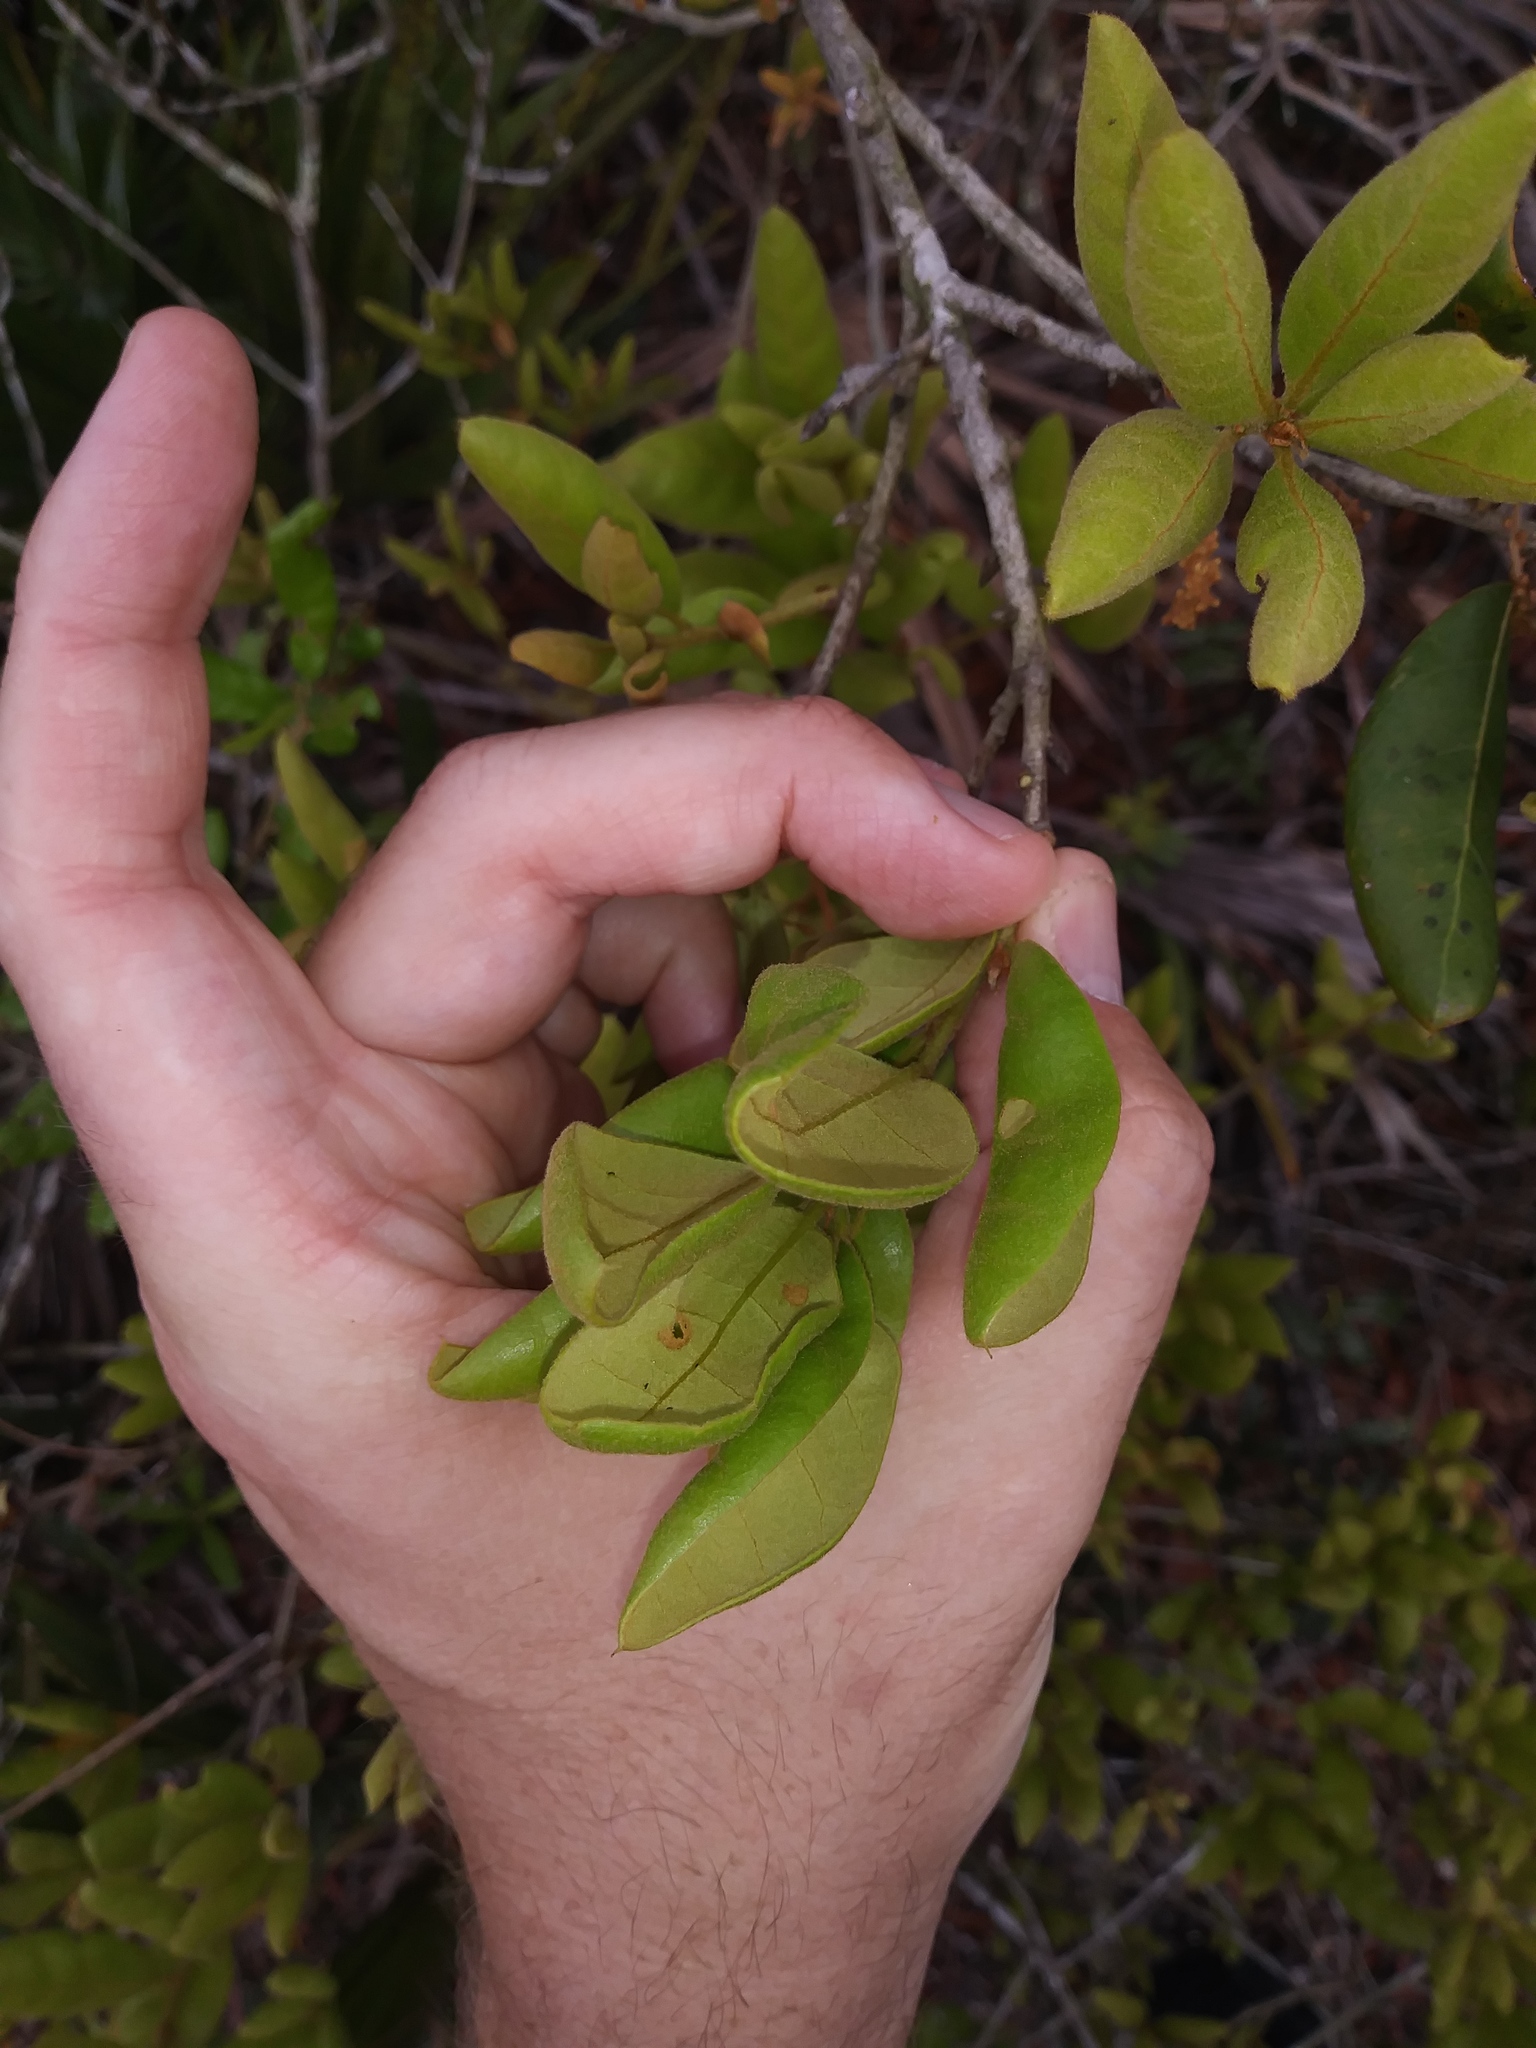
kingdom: Plantae
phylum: Tracheophyta
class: Magnoliopsida
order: Fagales
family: Fagaceae
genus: Quercus
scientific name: Quercus inopina
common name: Sandhill oak
